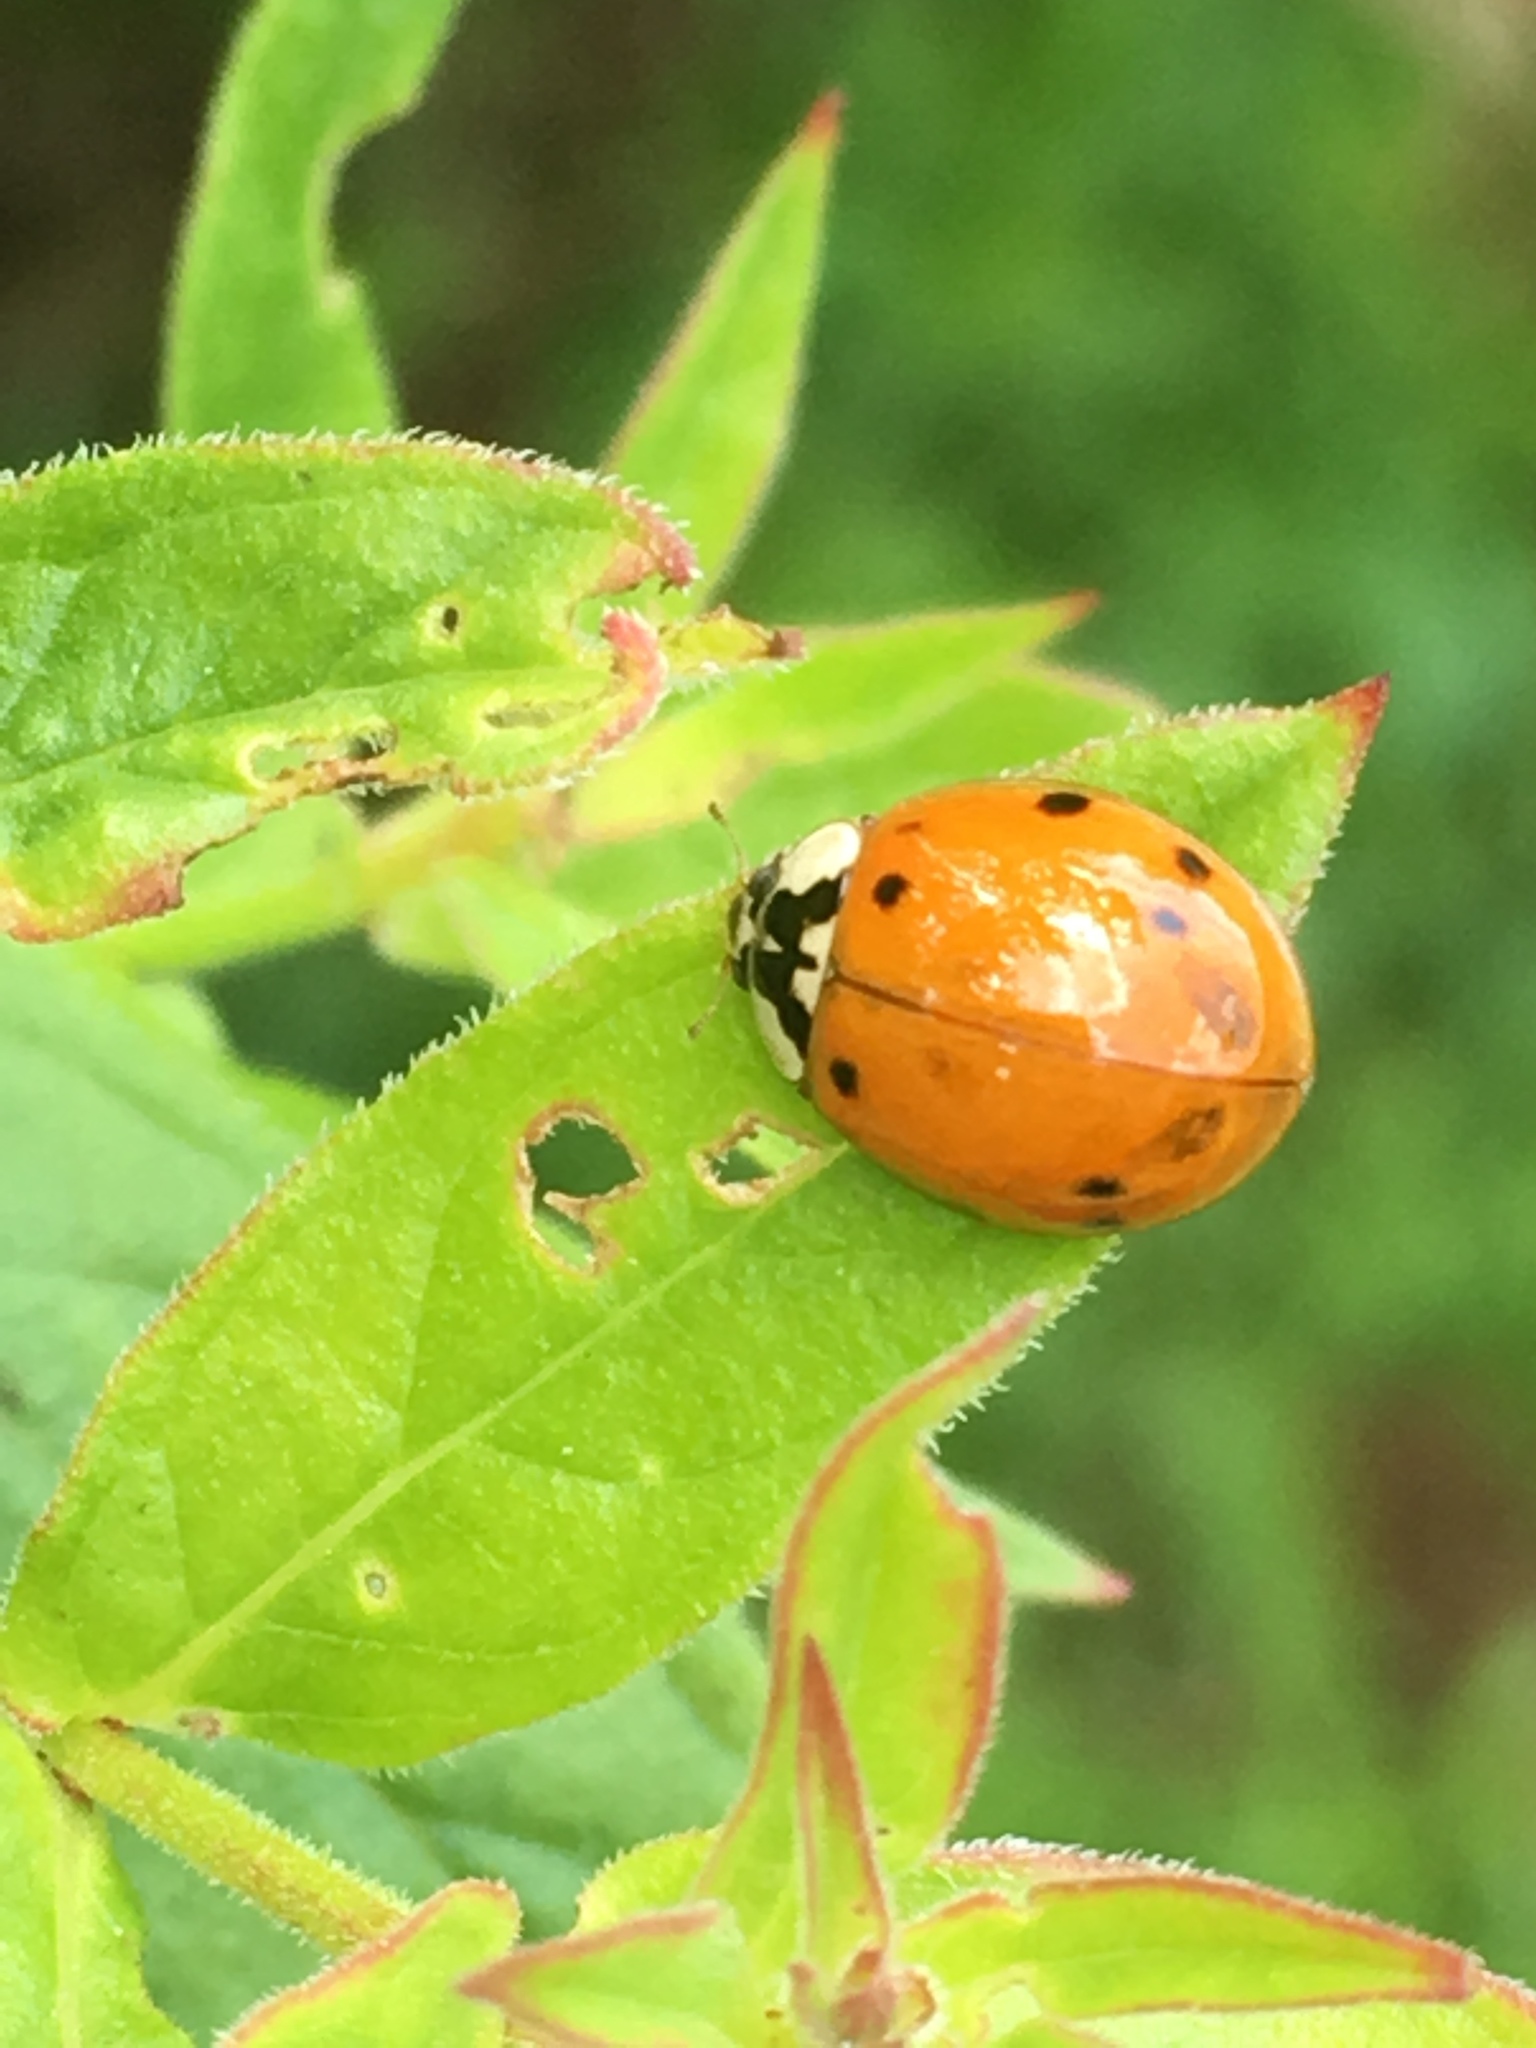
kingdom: Animalia
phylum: Arthropoda
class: Insecta
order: Coleoptera
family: Coccinellidae
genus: Harmonia
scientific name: Harmonia axyridis
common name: Harlequin ladybird
